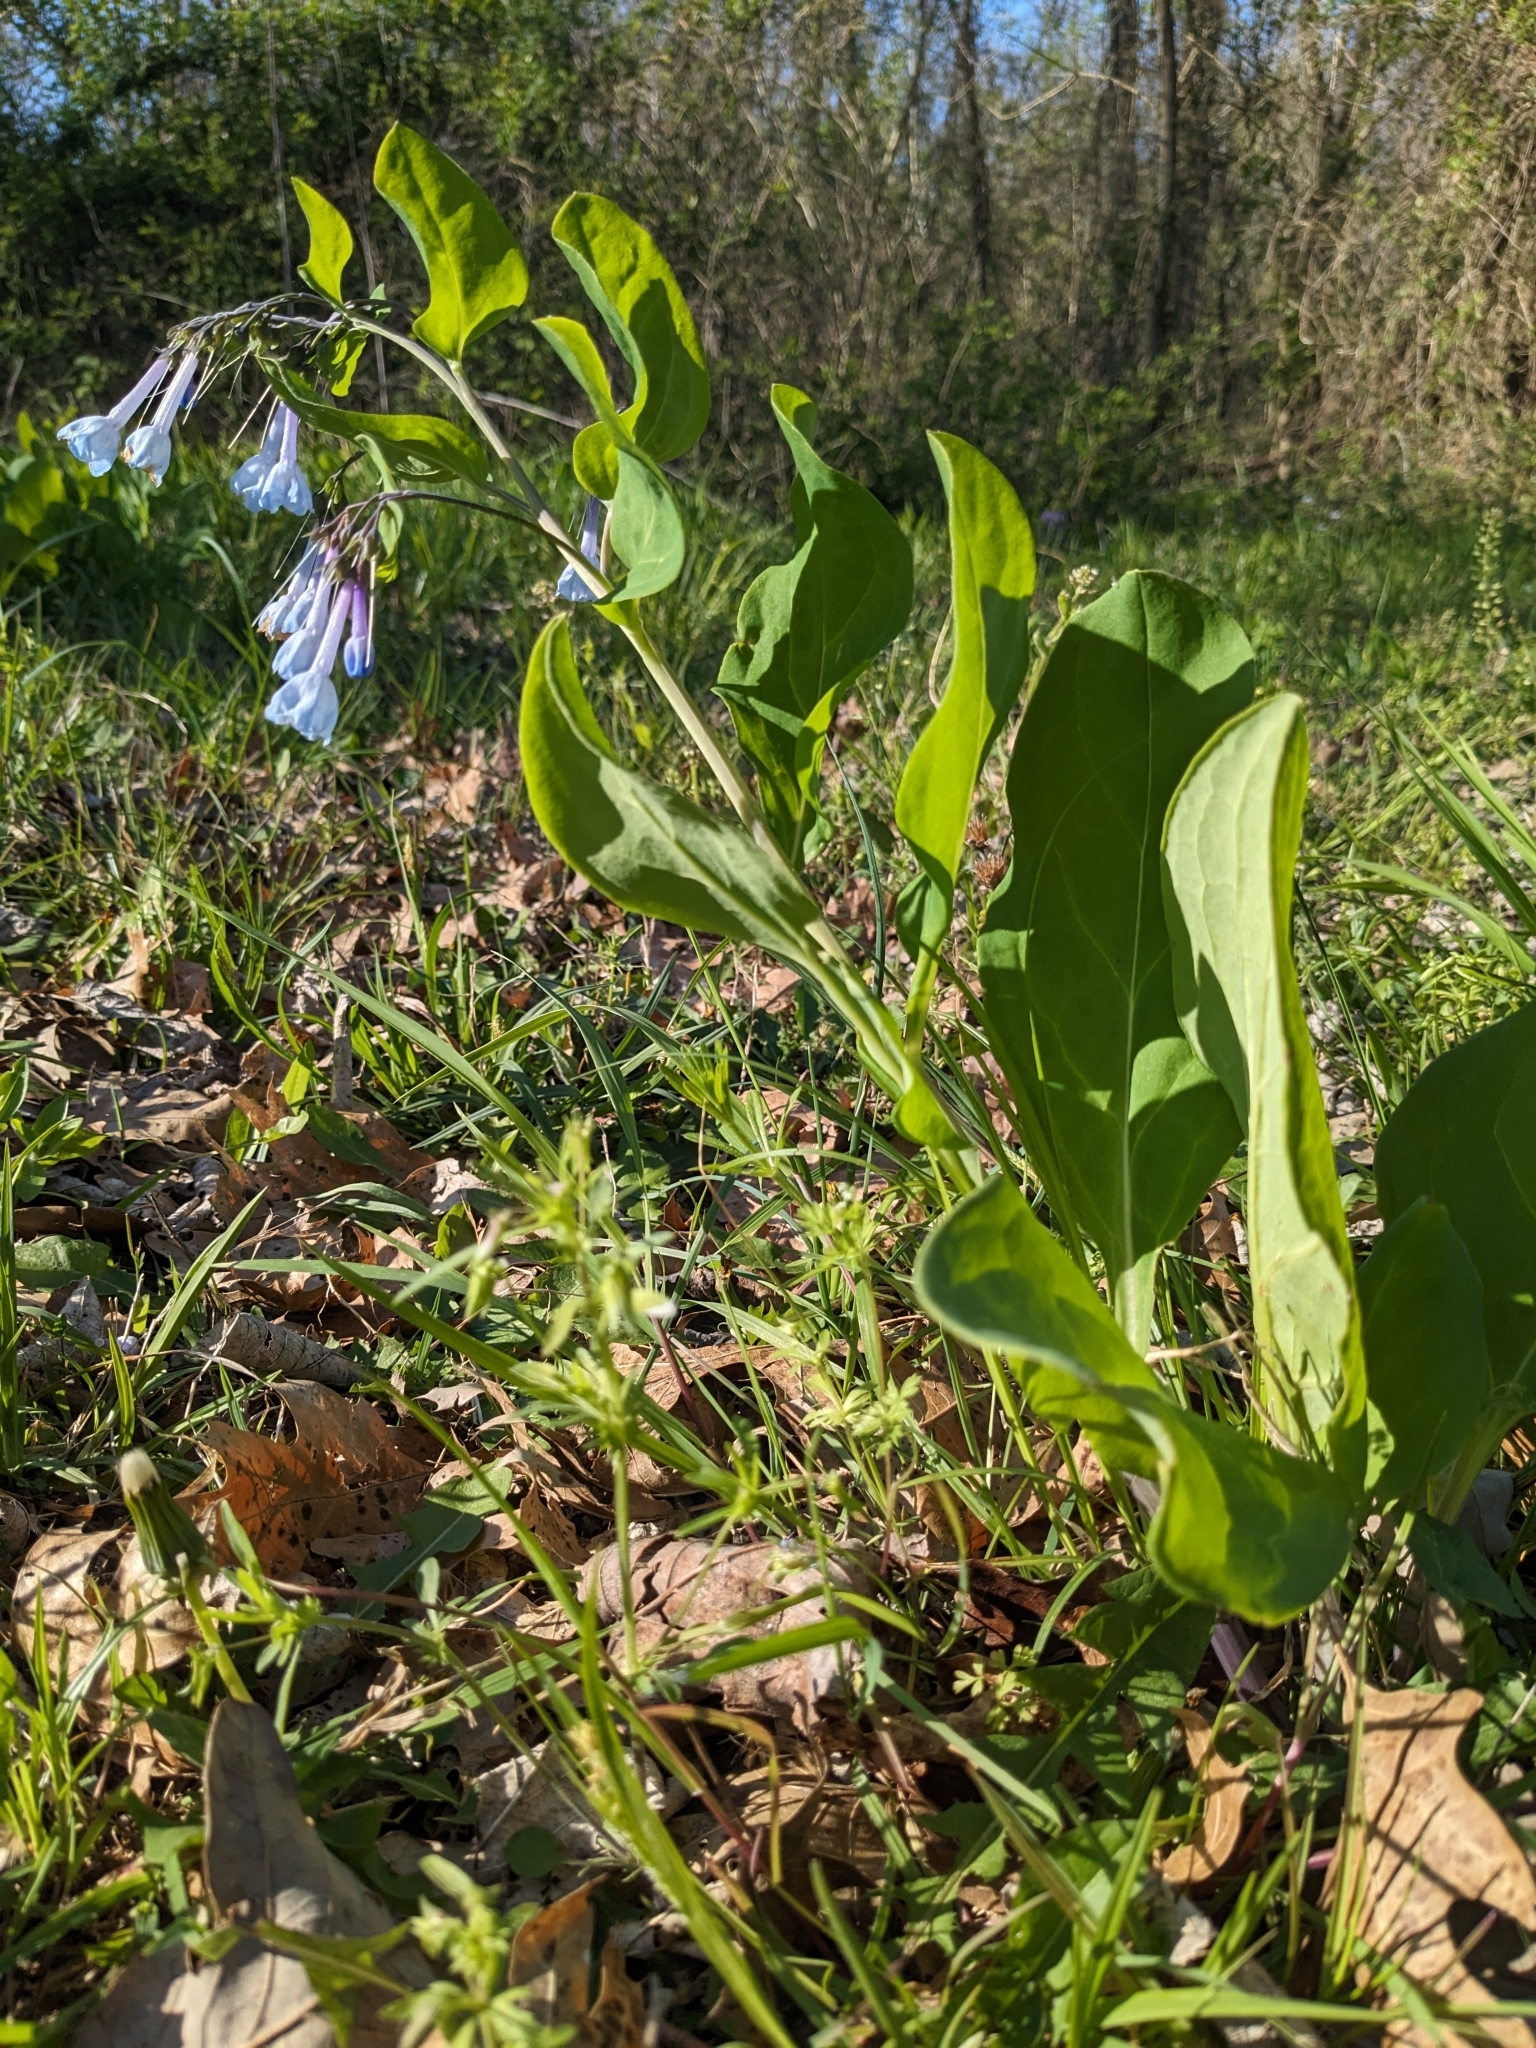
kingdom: Plantae
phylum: Tracheophyta
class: Magnoliopsida
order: Boraginales
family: Boraginaceae
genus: Mertensia
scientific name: Mertensia virginica
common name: Virginia bluebells
